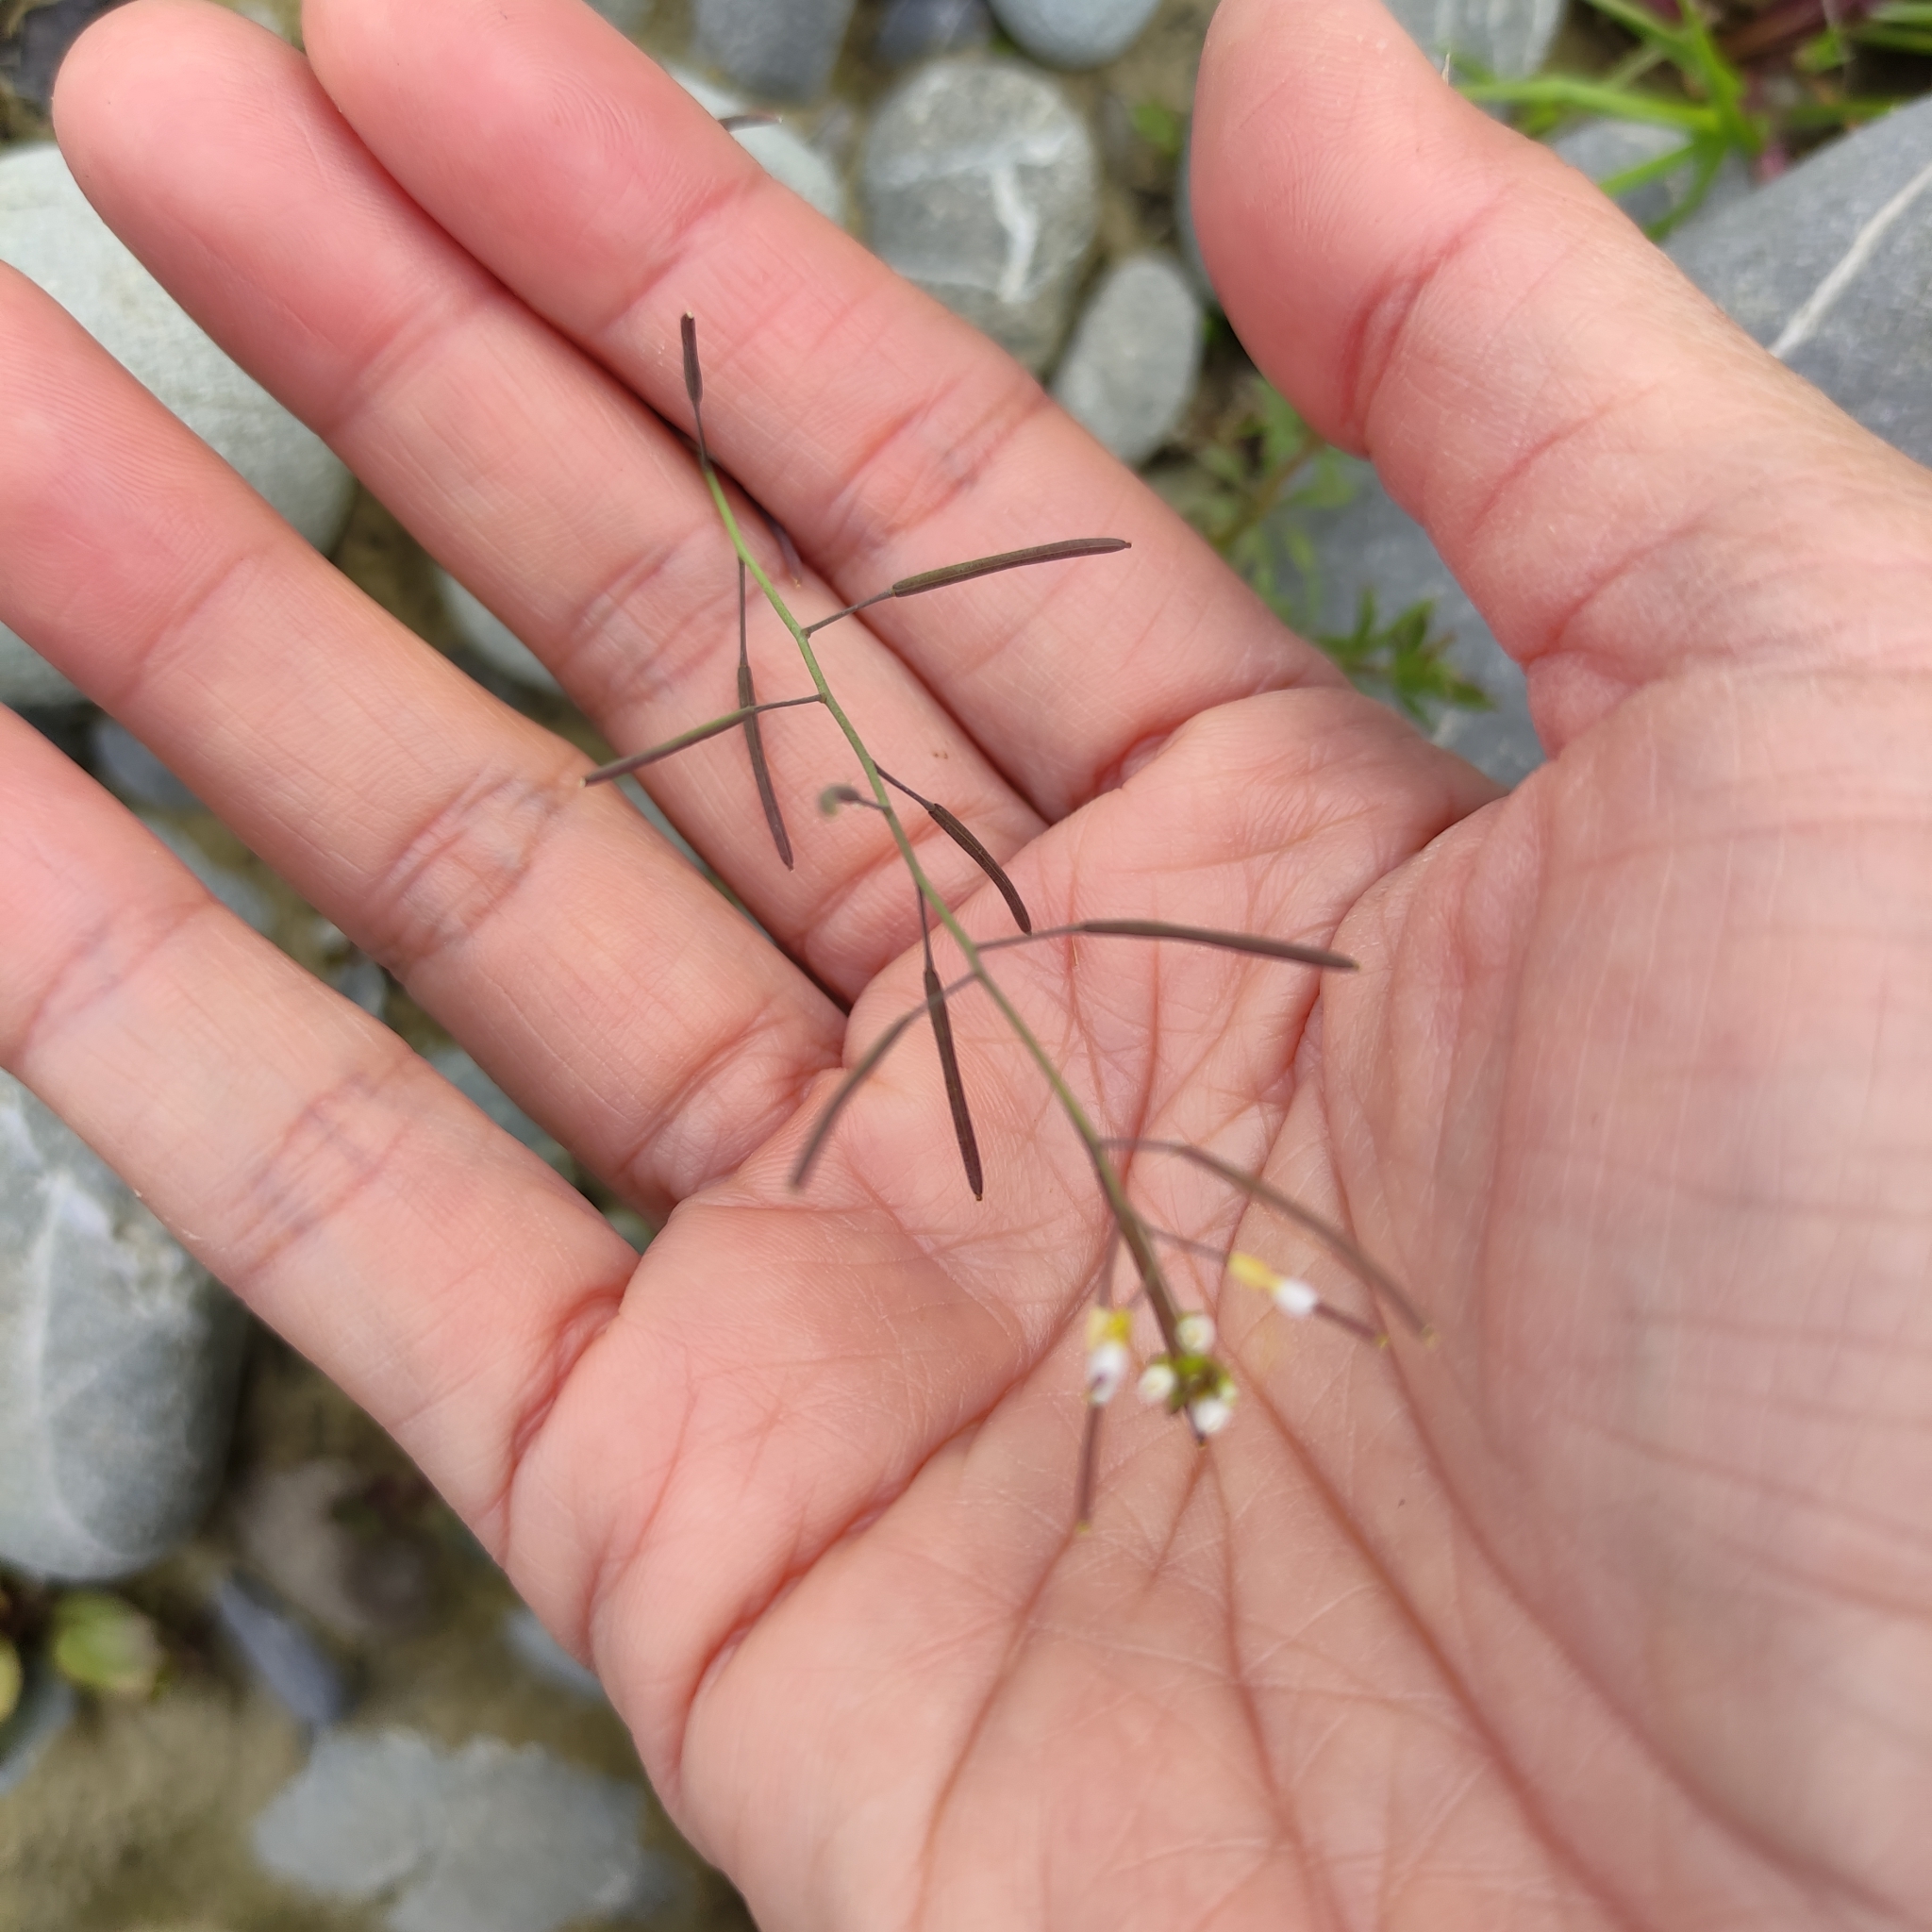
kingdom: Plantae
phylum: Tracheophyta
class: Magnoliopsida
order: Brassicales
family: Brassicaceae
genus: Arabidopsis
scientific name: Arabidopsis thaliana
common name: Thale cress
